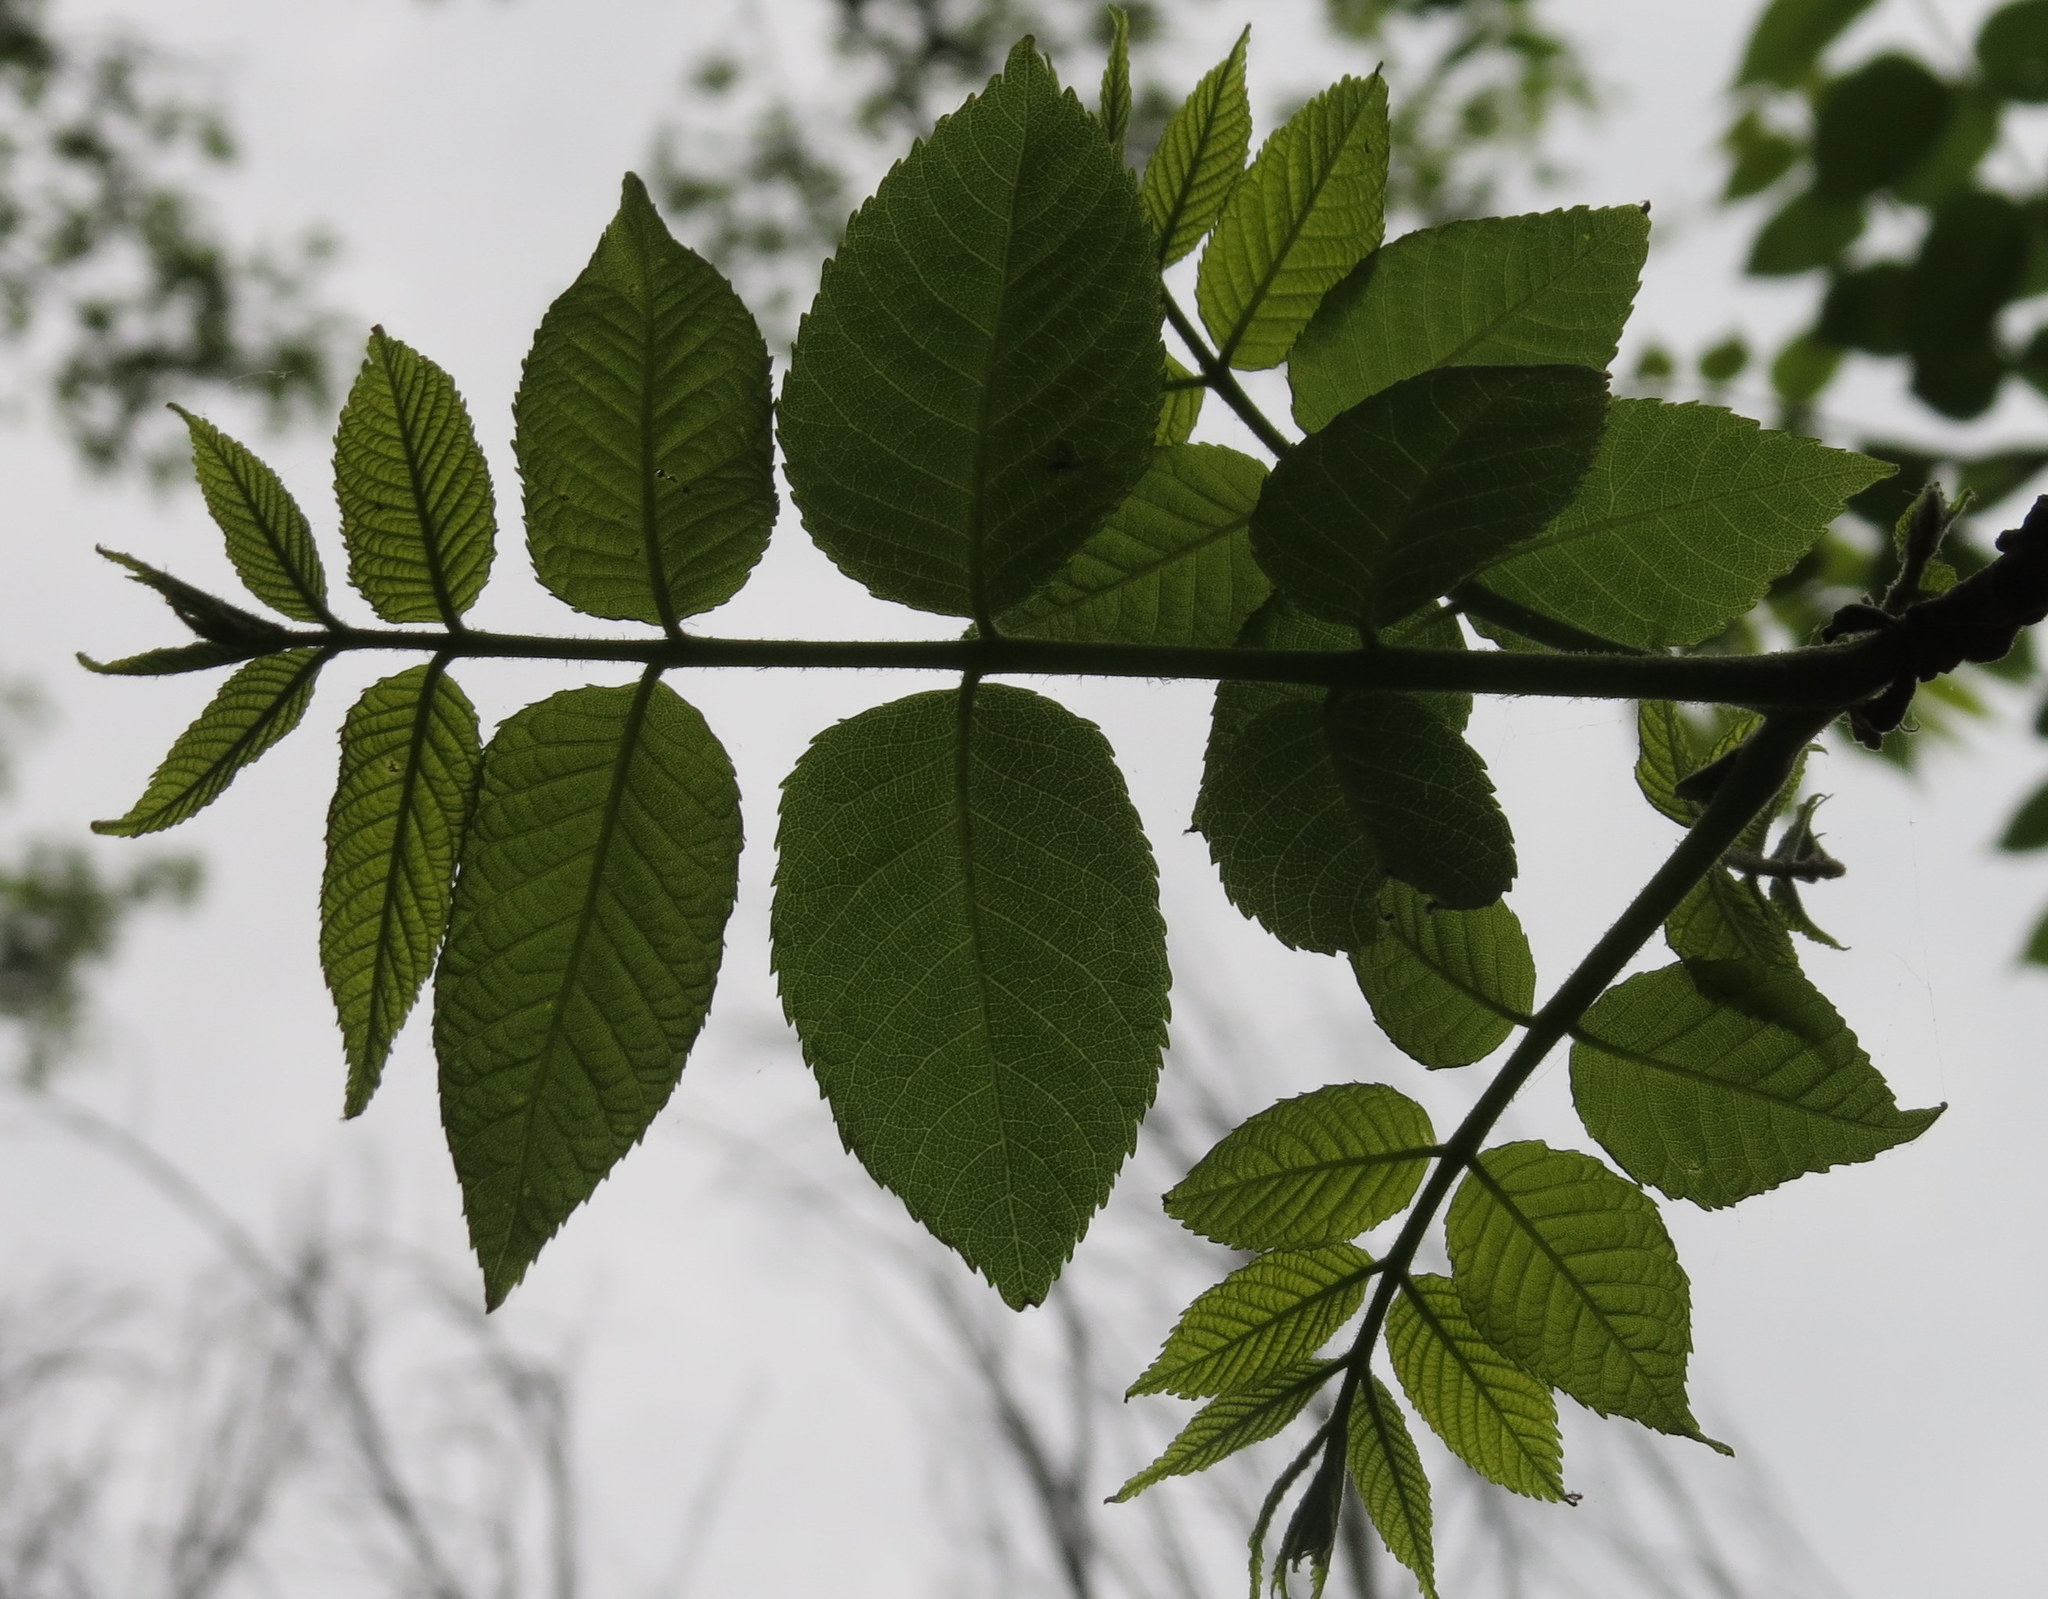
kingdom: Plantae
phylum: Tracheophyta
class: Magnoliopsida
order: Fagales
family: Juglandaceae
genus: Juglans
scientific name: Juglans nigra
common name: Black walnut
